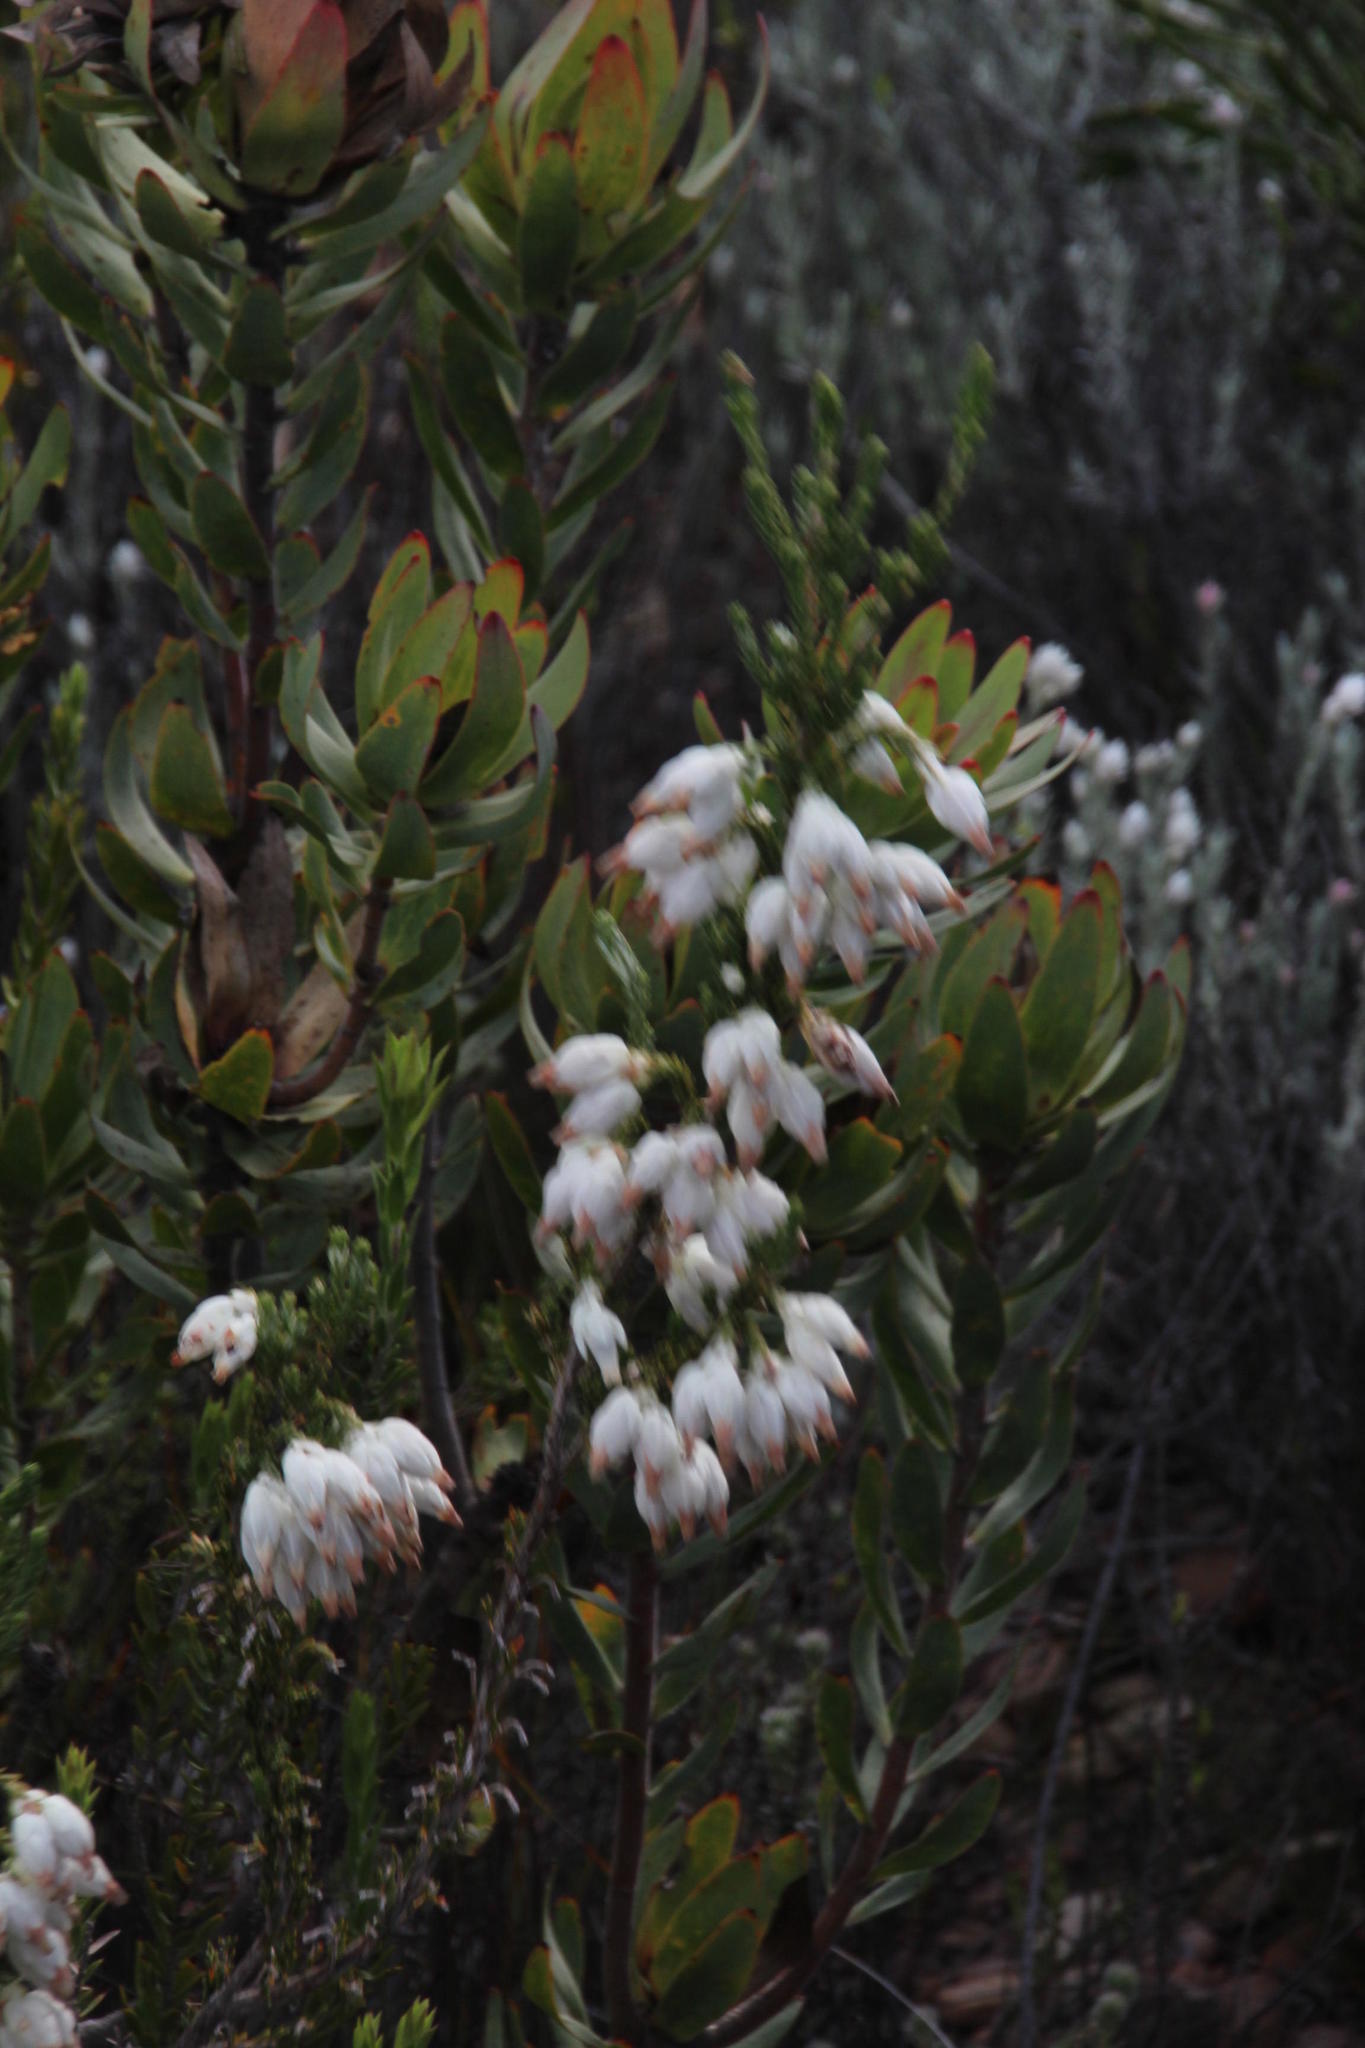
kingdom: Plantae
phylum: Tracheophyta
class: Magnoliopsida
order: Ericales
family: Ericaceae
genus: Erica
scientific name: Erica monsoniana
